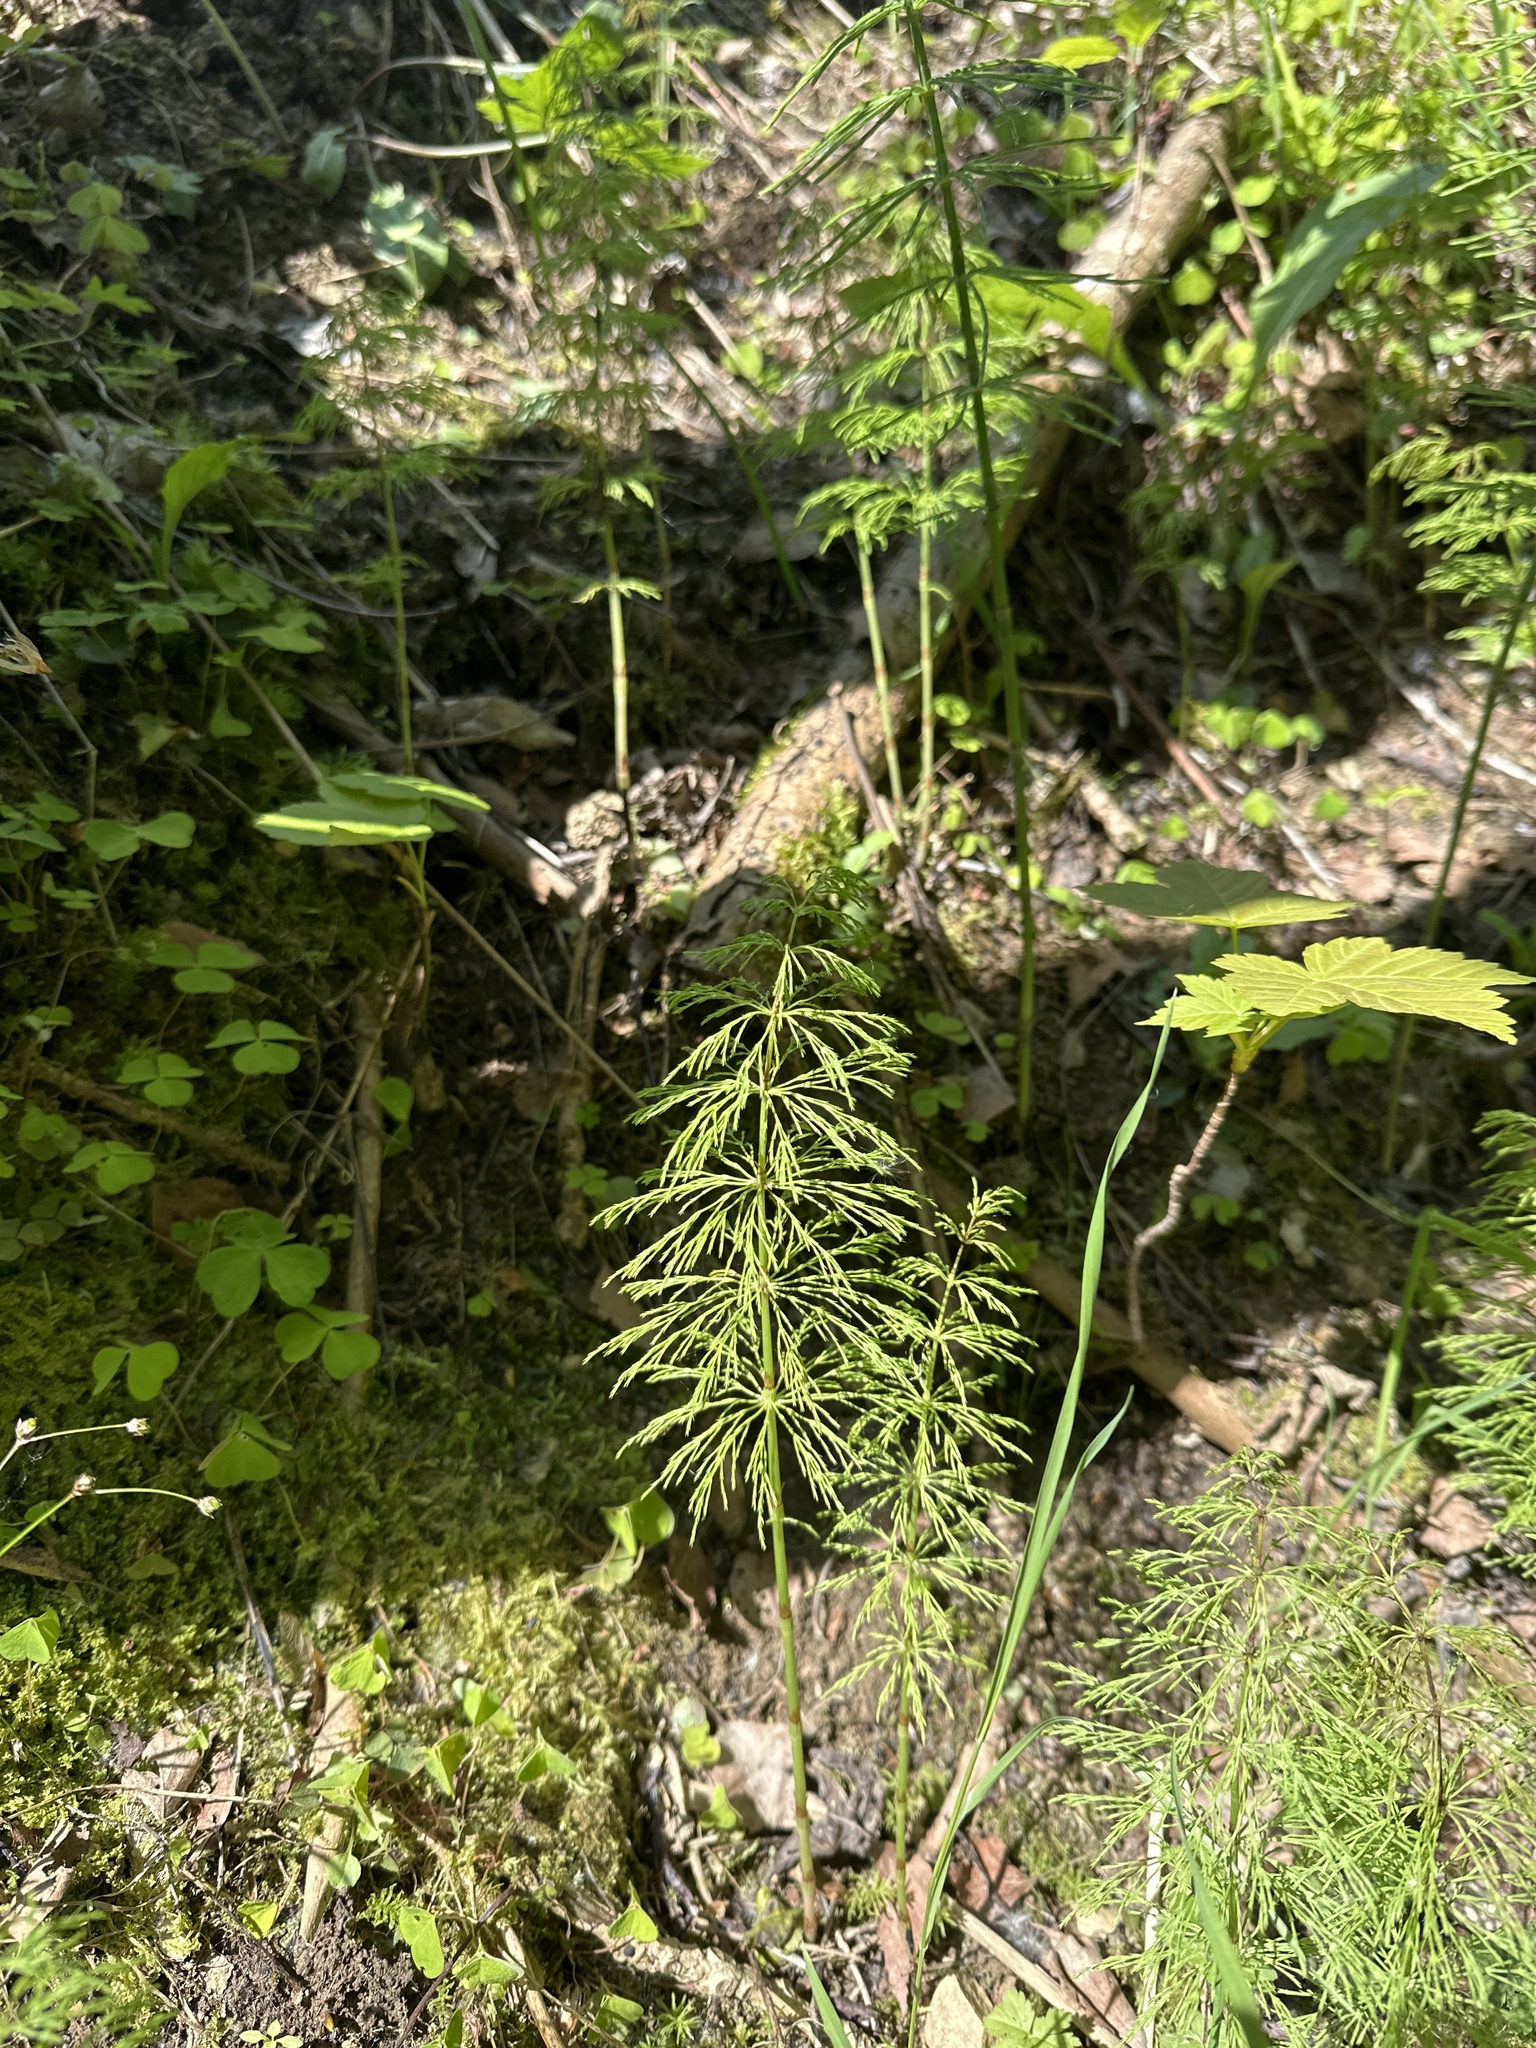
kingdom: Plantae
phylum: Tracheophyta
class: Polypodiopsida
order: Equisetales
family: Equisetaceae
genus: Equisetum
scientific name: Equisetum sylvaticum
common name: Wood horsetail
